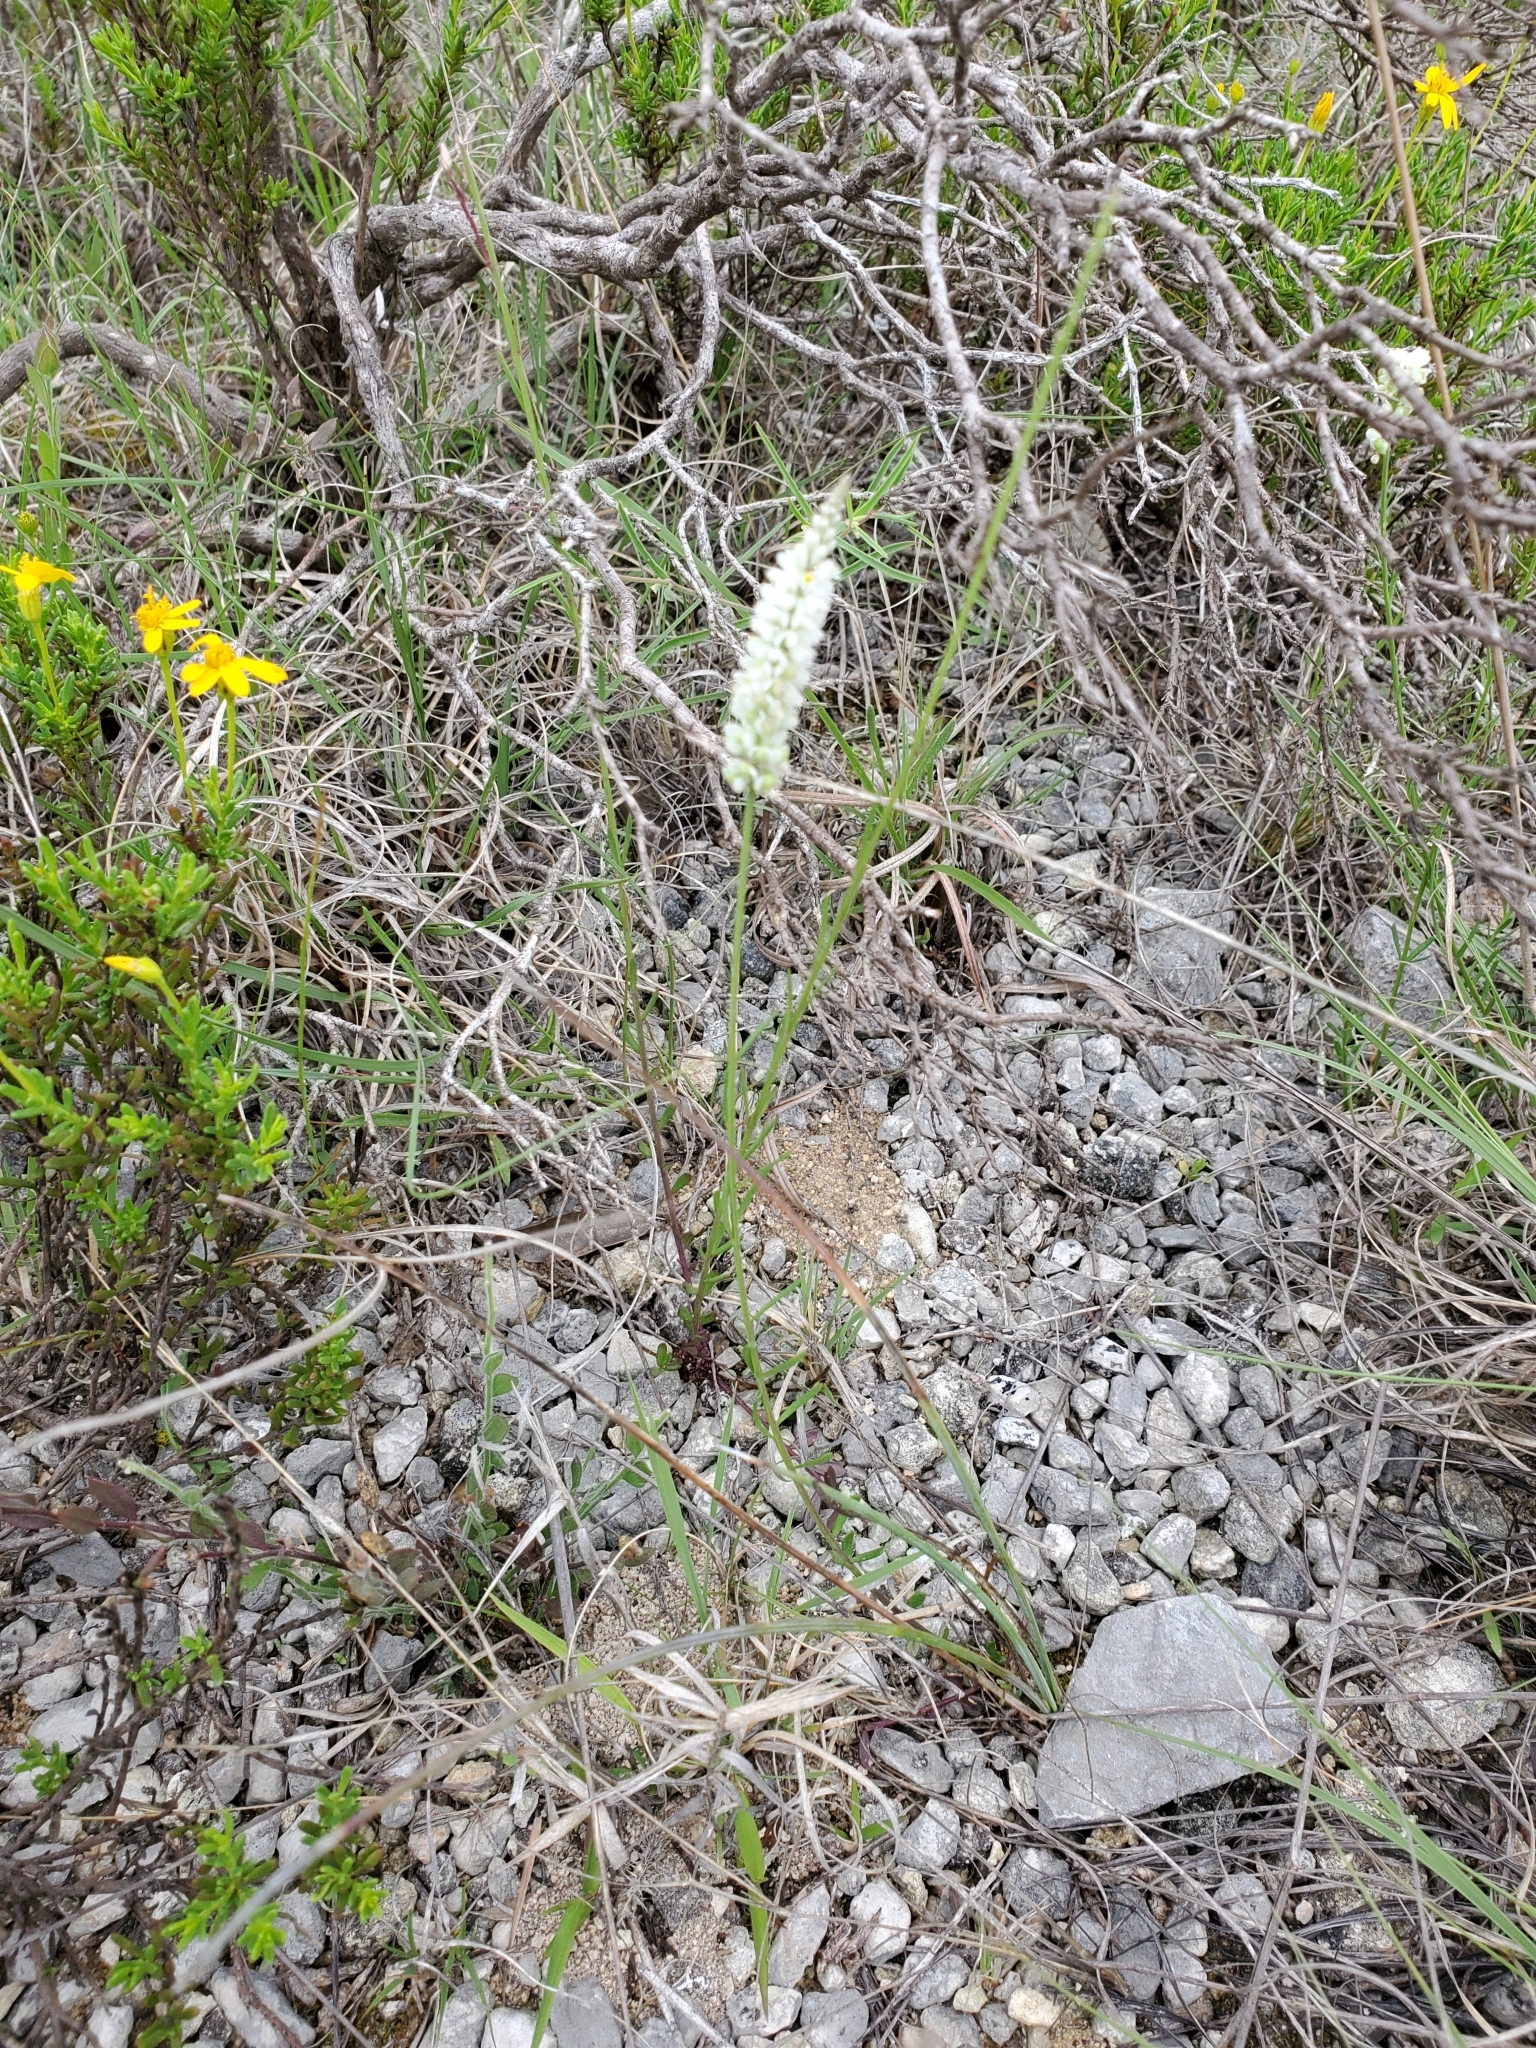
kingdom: Plantae
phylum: Tracheophyta
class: Magnoliopsida
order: Fabales
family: Polygalaceae
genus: Polygala
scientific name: Polygala alba
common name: White milkwort
